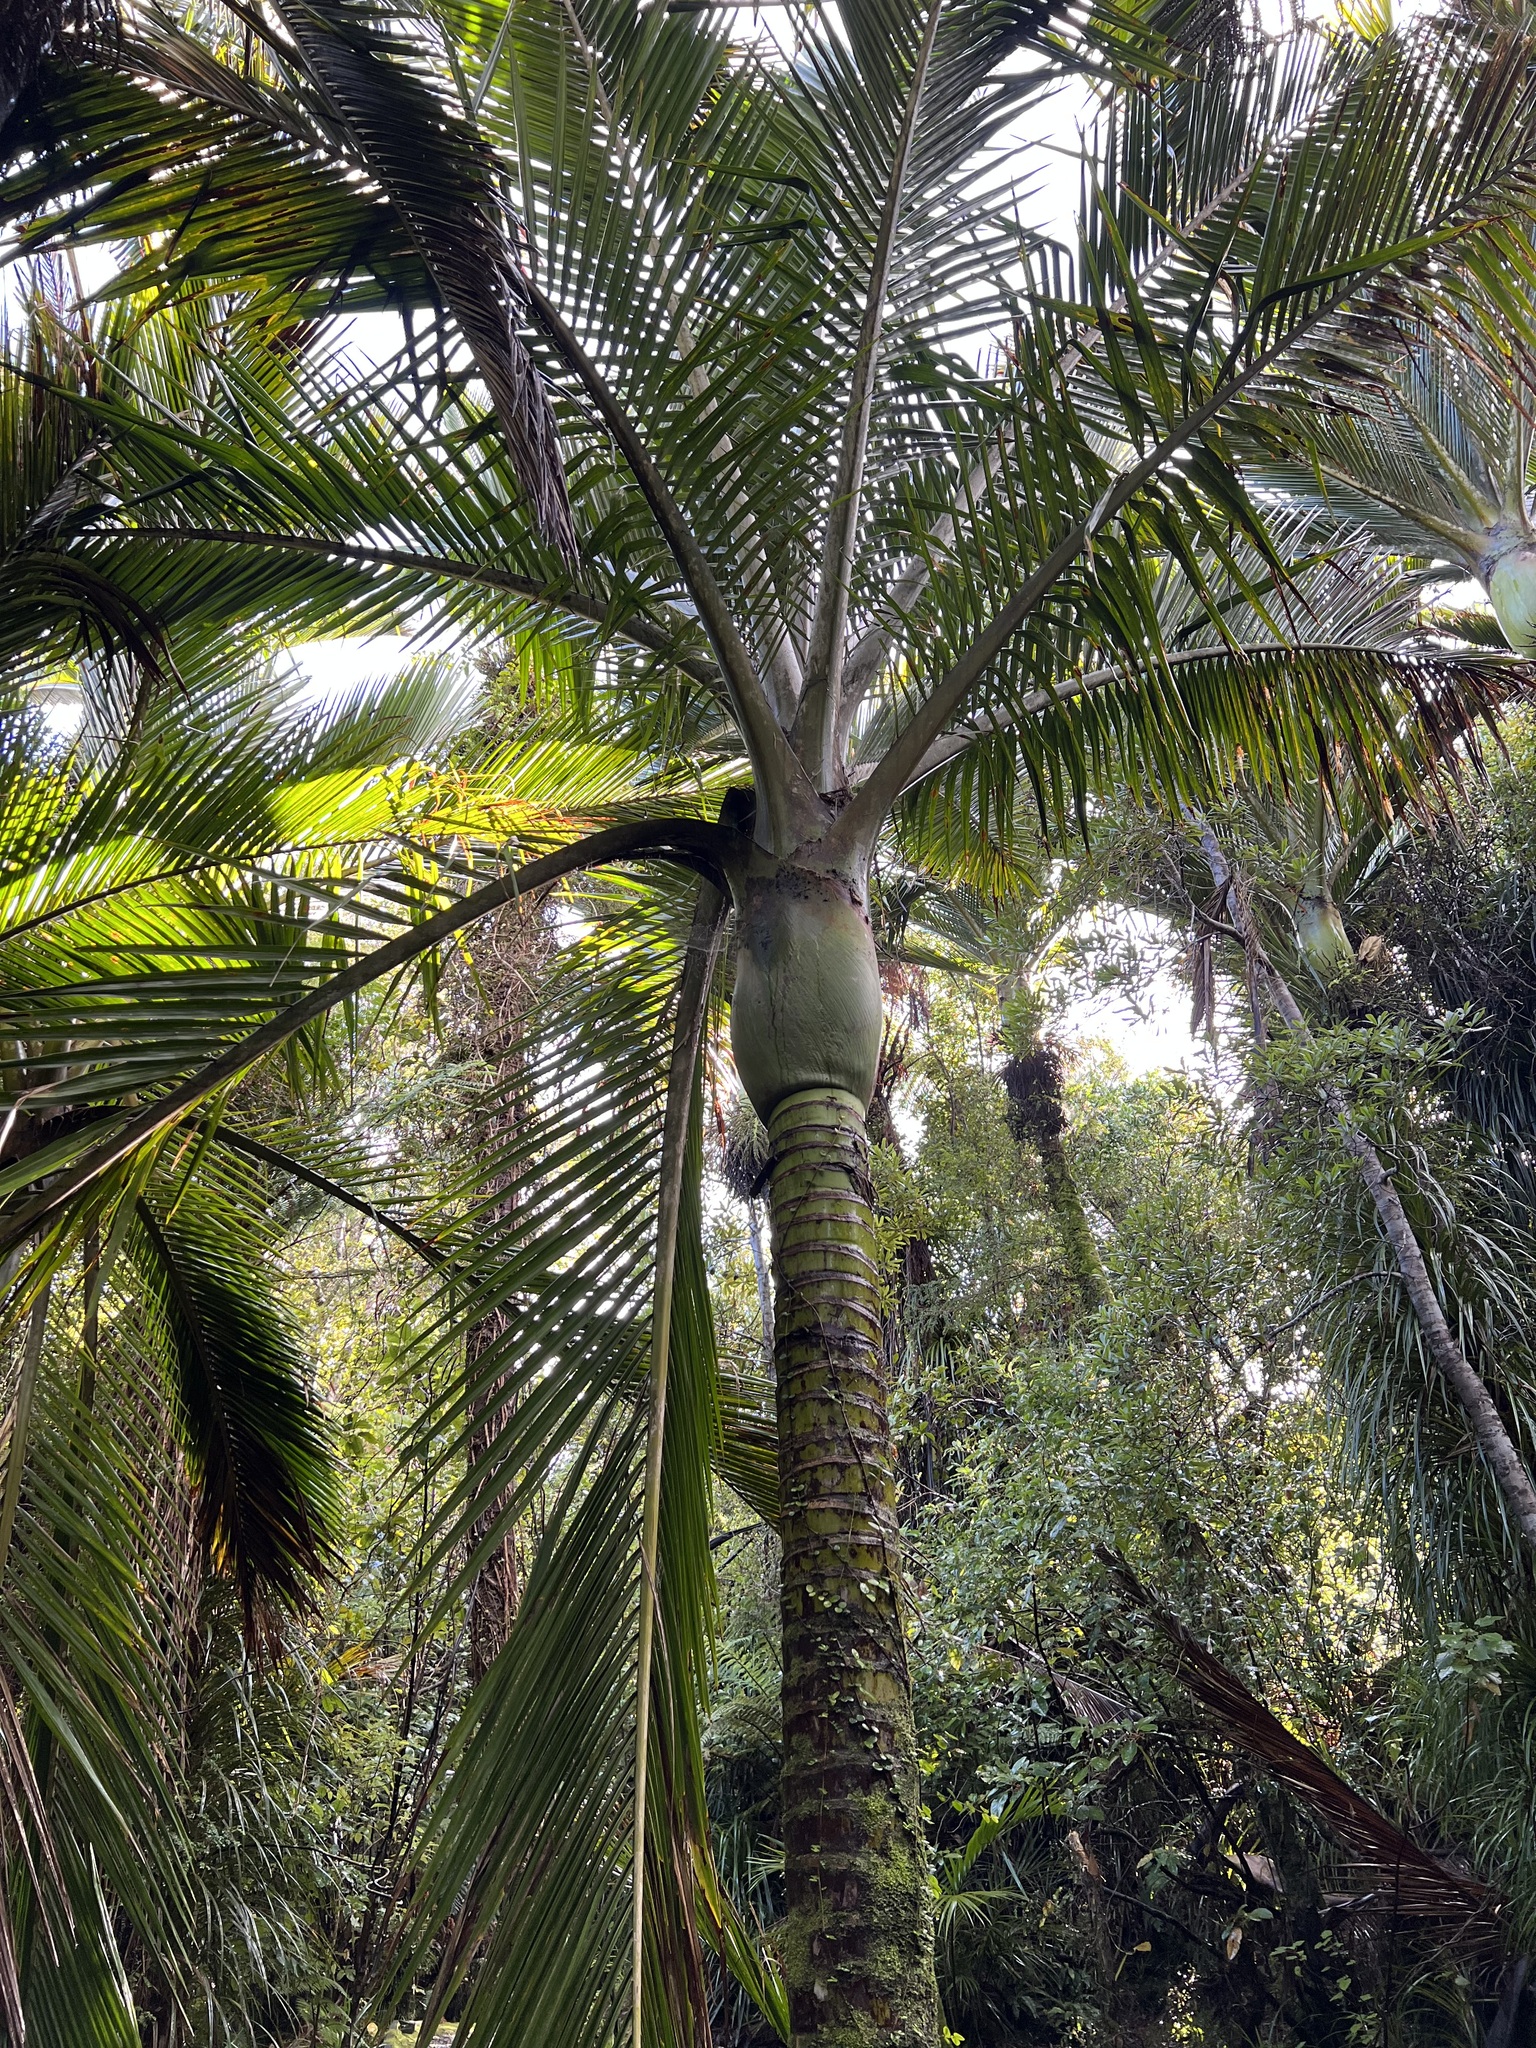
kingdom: Plantae
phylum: Tracheophyta
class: Liliopsida
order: Arecales
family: Arecaceae
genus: Rhopalostylis
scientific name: Rhopalostylis sapida
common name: Feather-duster palm
